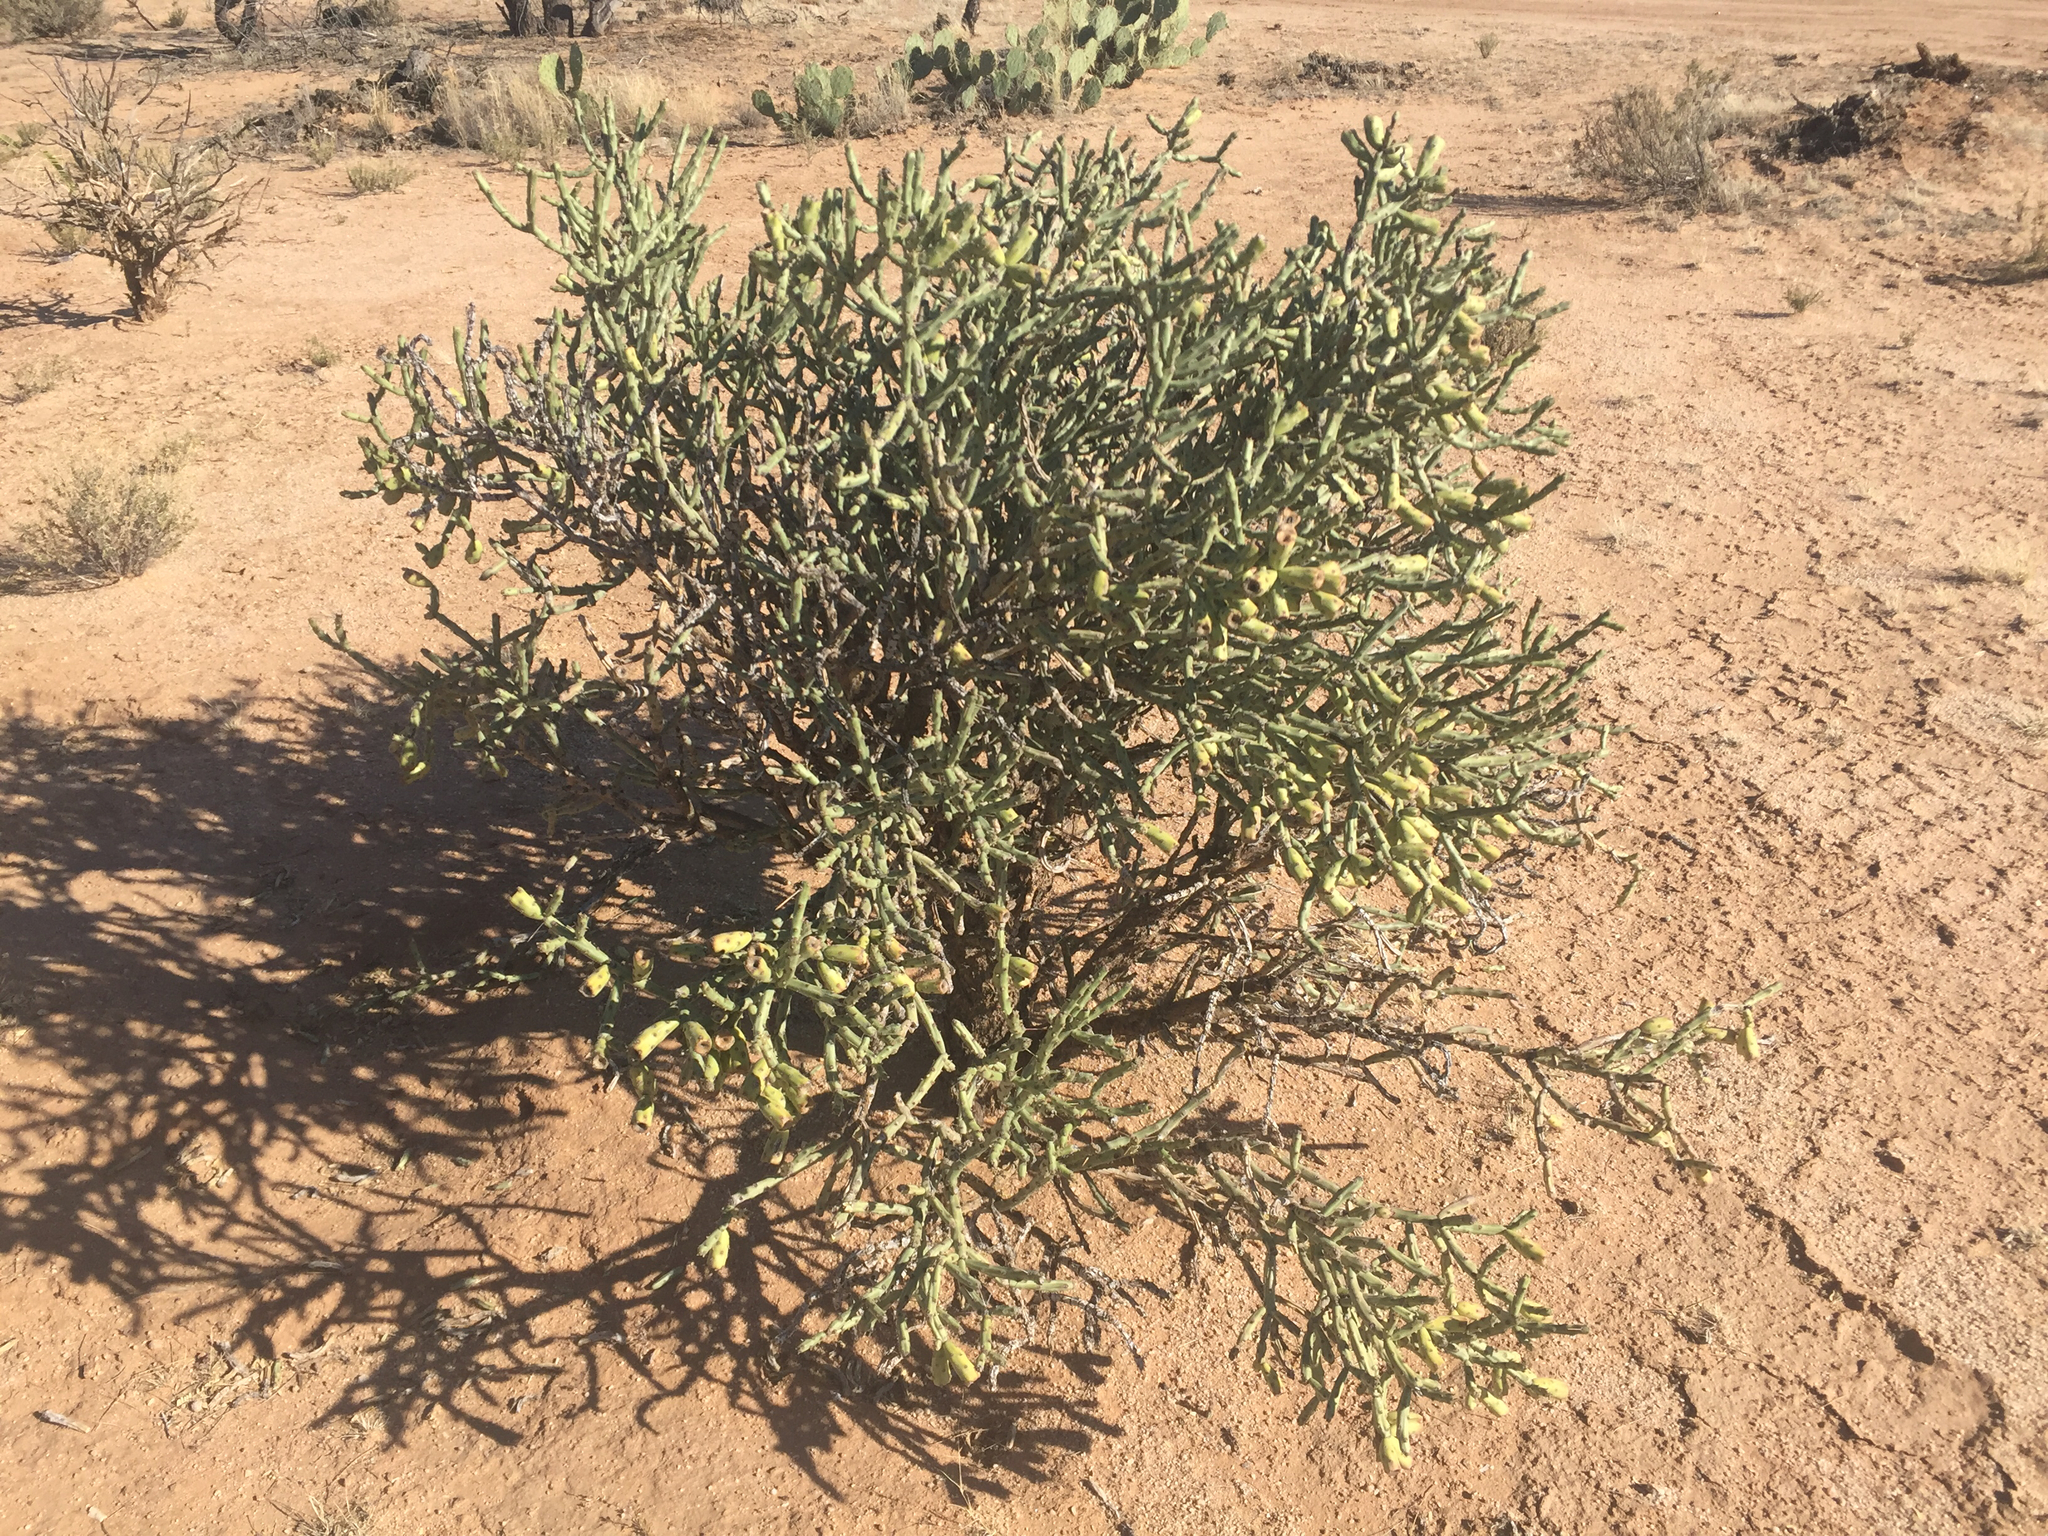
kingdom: Plantae
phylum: Tracheophyta
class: Magnoliopsida
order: Caryophyllales
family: Cactaceae
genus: Cylindropuntia
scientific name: Cylindropuntia arbuscula
